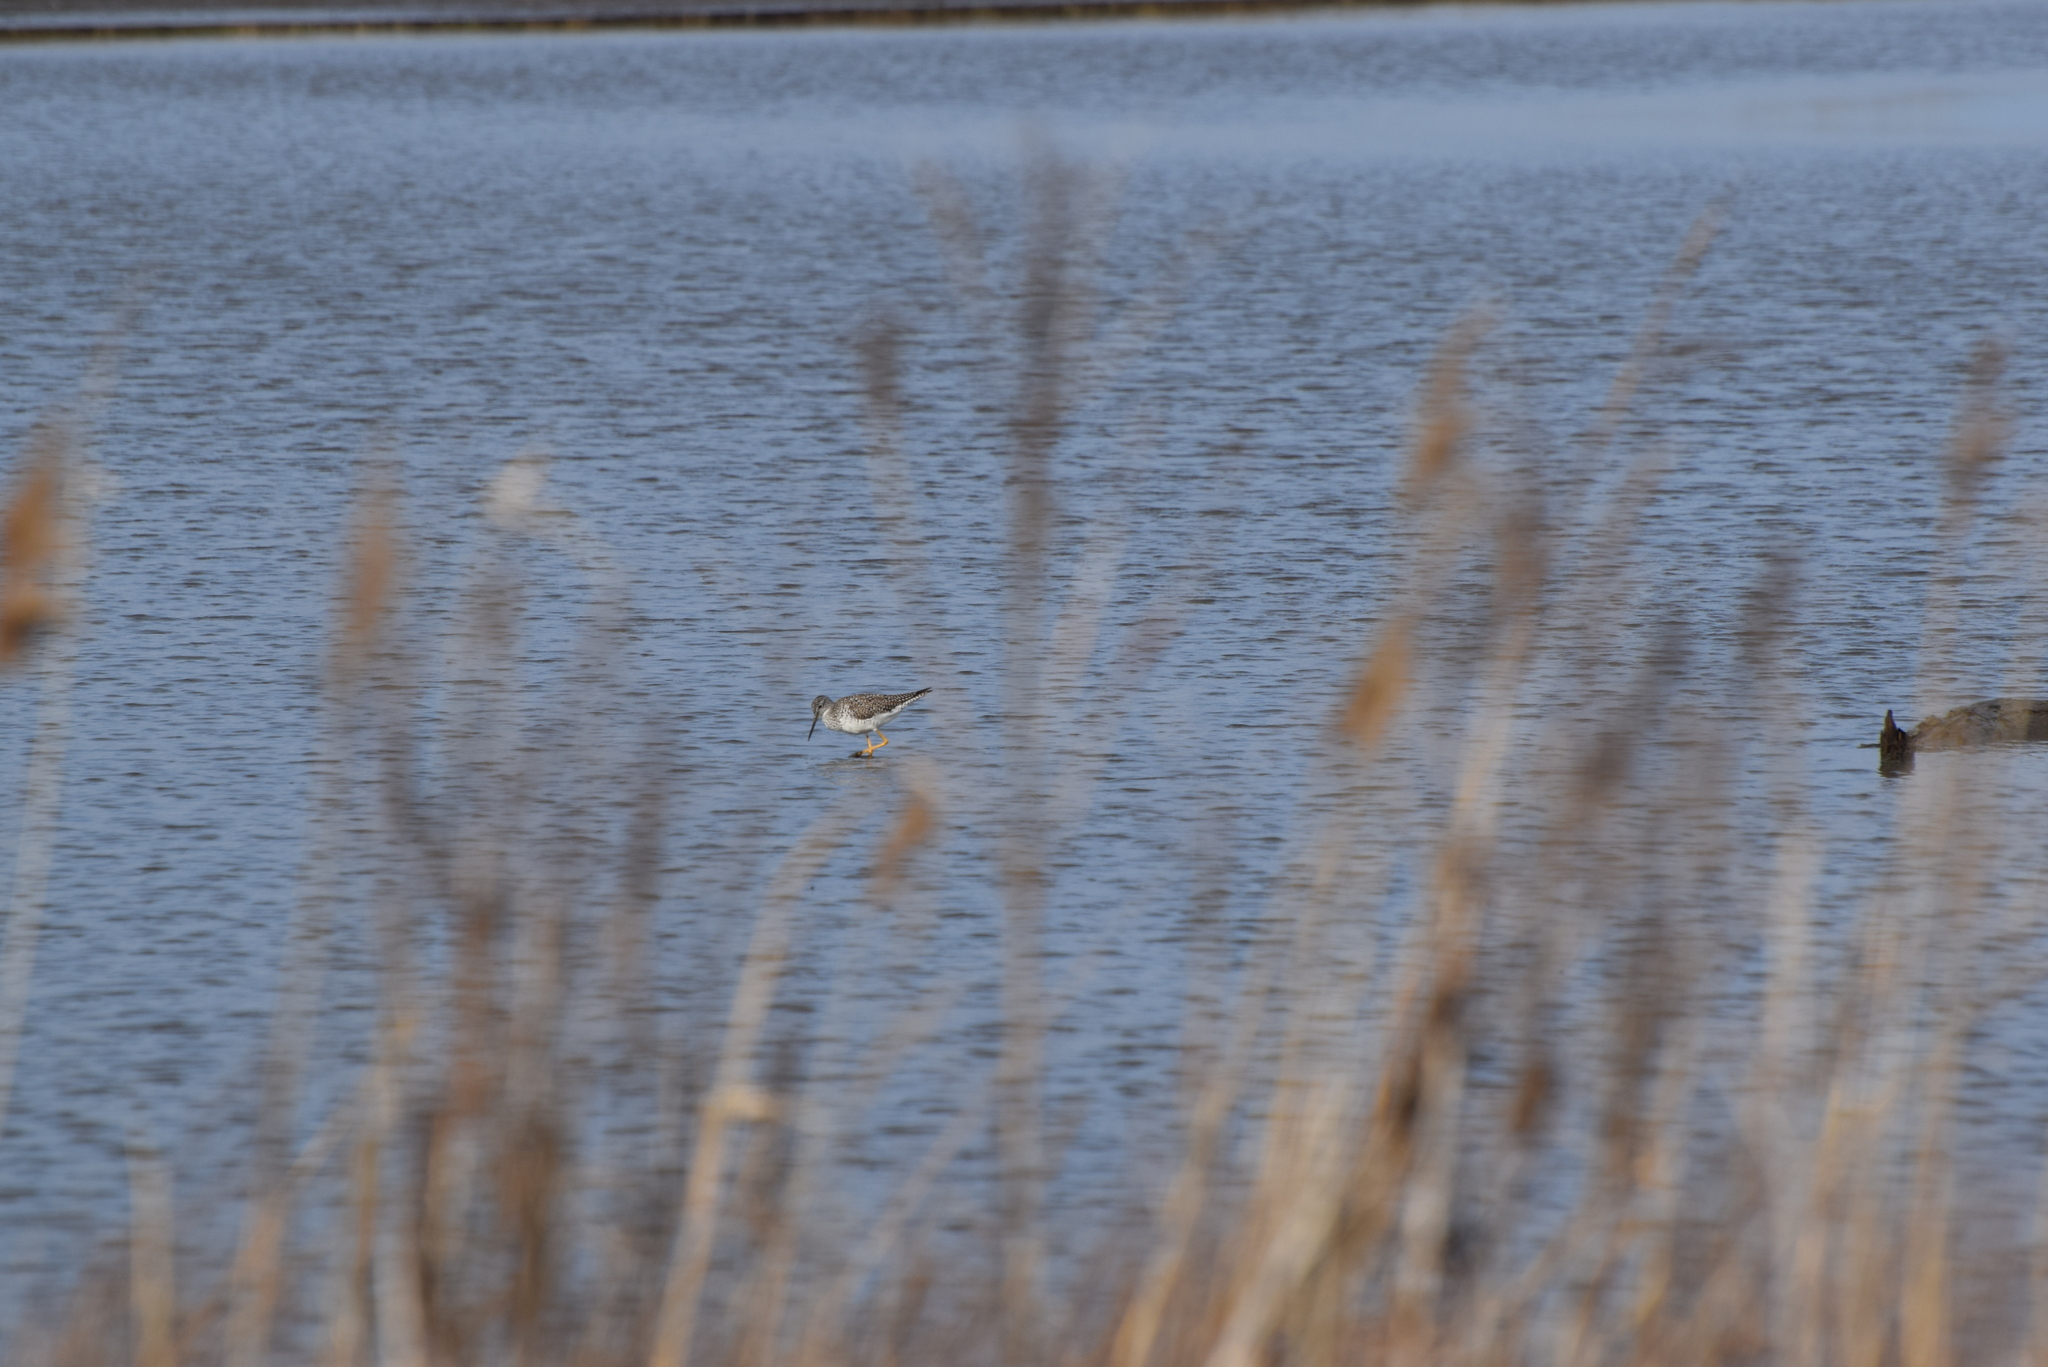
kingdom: Animalia
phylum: Chordata
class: Aves
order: Charadriiformes
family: Scolopacidae
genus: Tringa
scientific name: Tringa melanoleuca
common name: Greater yellowlegs
